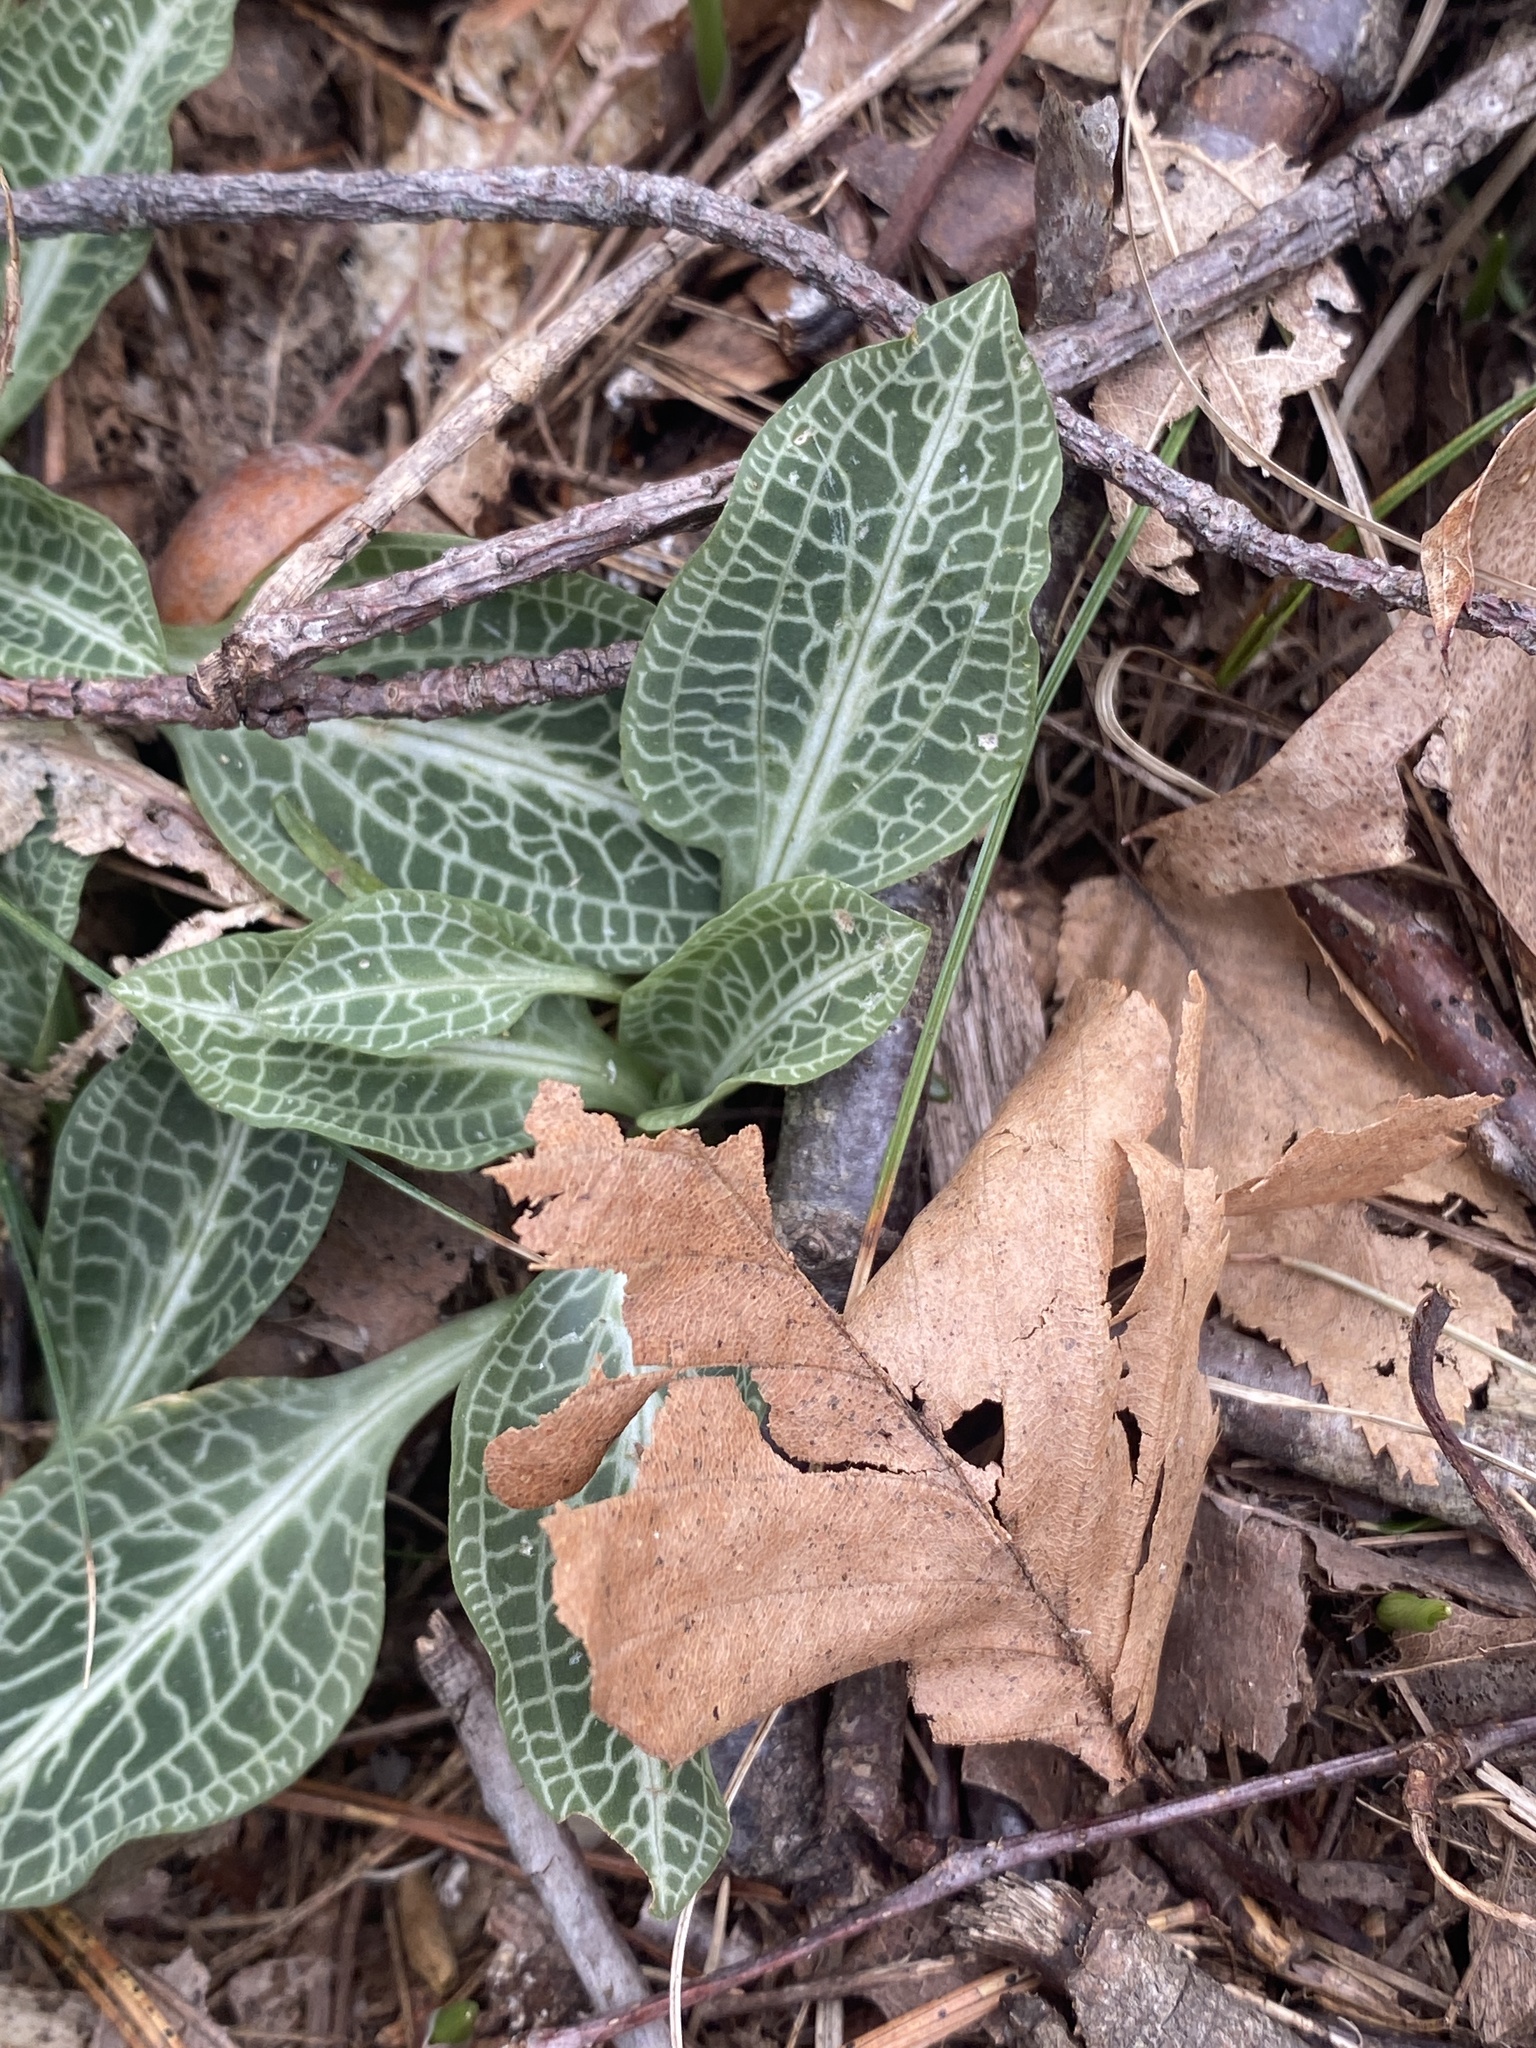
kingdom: Plantae
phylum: Tracheophyta
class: Liliopsida
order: Asparagales
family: Orchidaceae
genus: Goodyera
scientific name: Goodyera pubescens
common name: Downy rattlesnake-plantain
